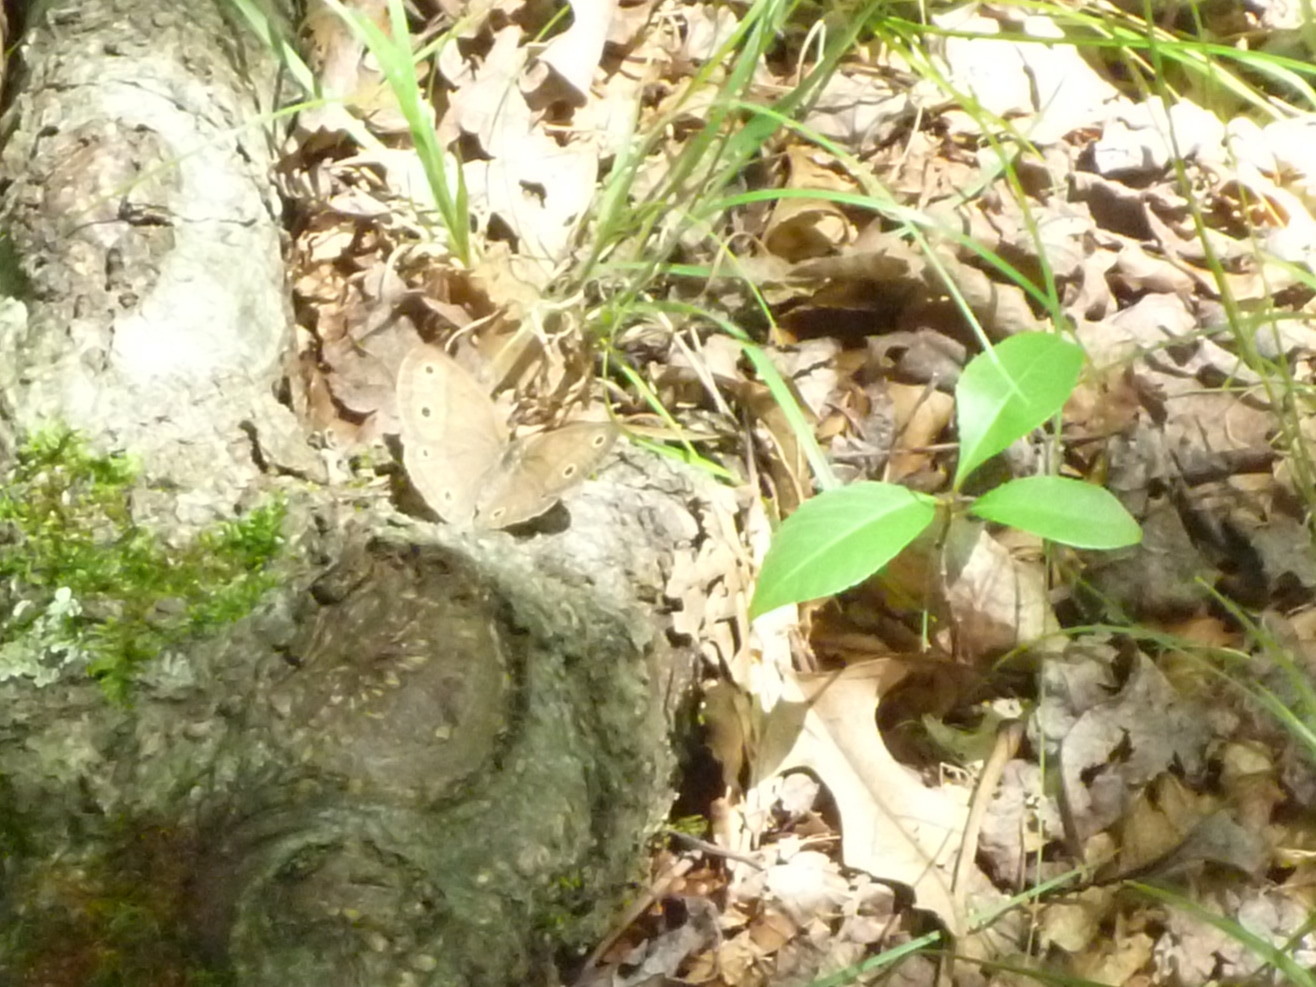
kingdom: Animalia
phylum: Arthropoda
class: Insecta
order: Lepidoptera
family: Nymphalidae
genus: Euptychia
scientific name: Euptychia cymela
